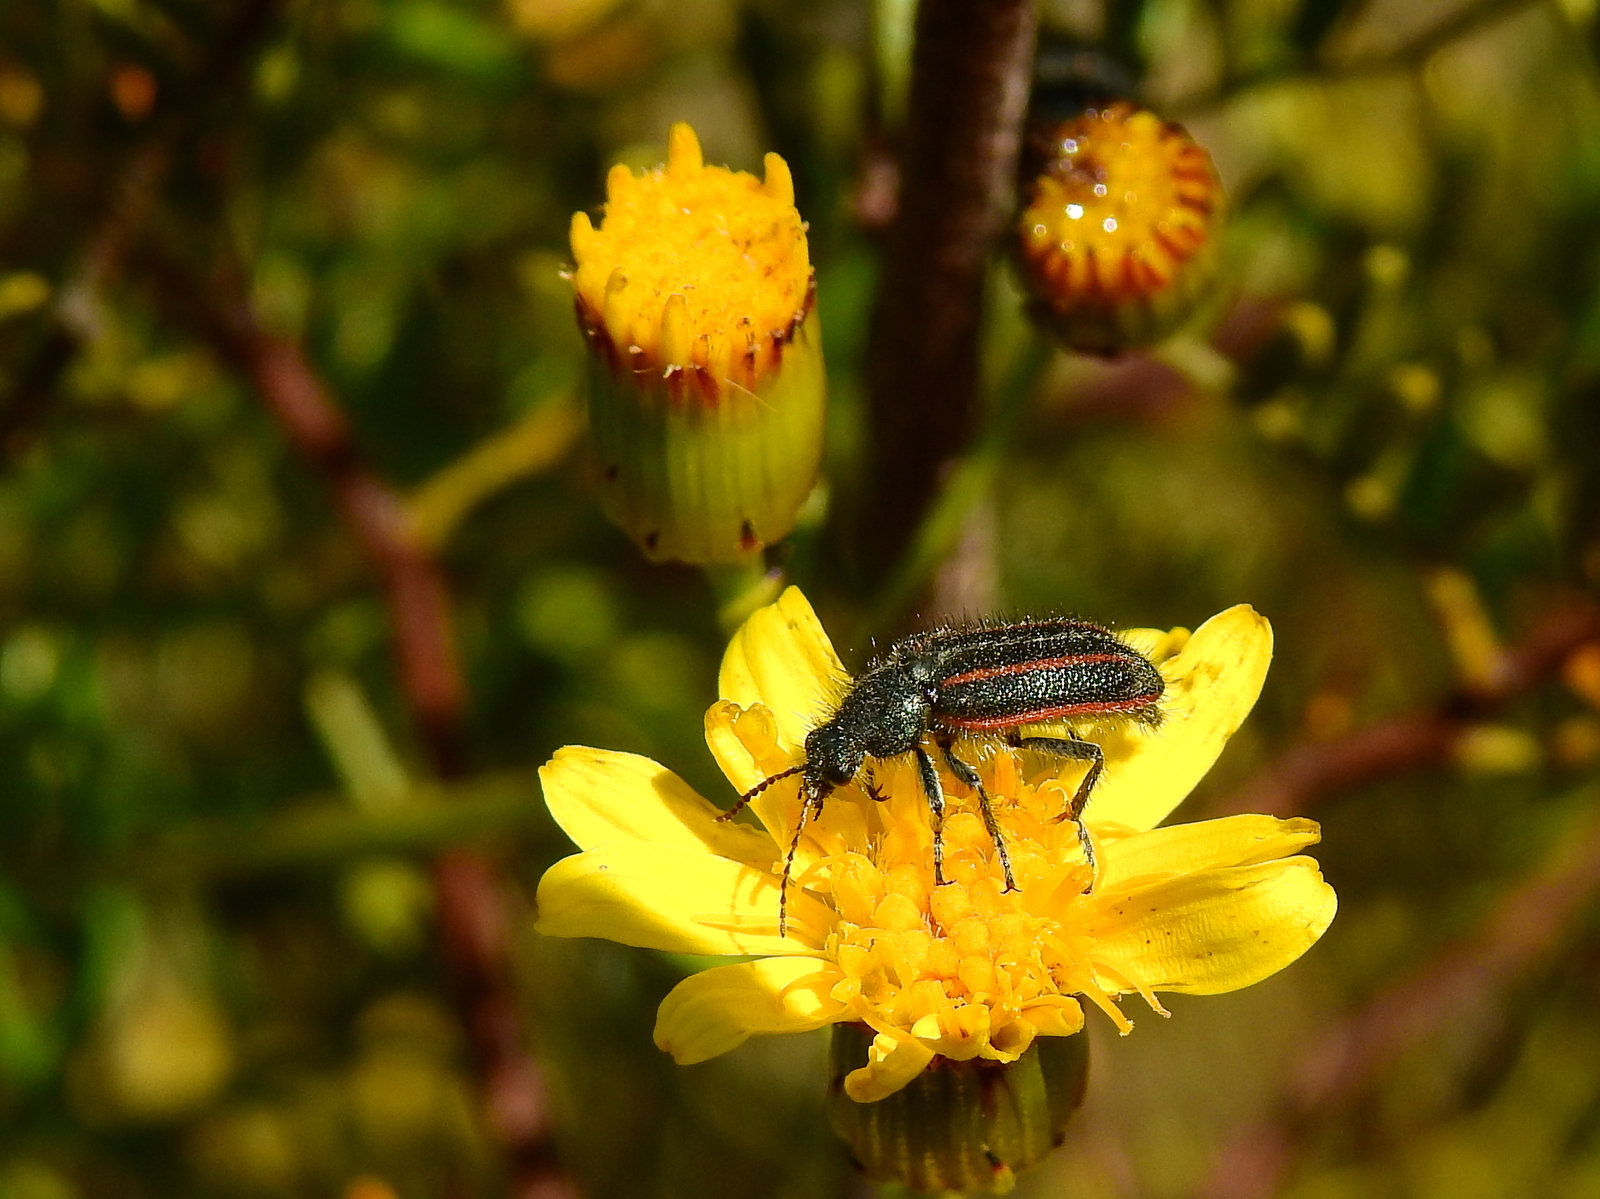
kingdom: Animalia
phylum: Arthropoda
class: Insecta
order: Coleoptera
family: Melyridae
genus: Astylus
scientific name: Astylus
